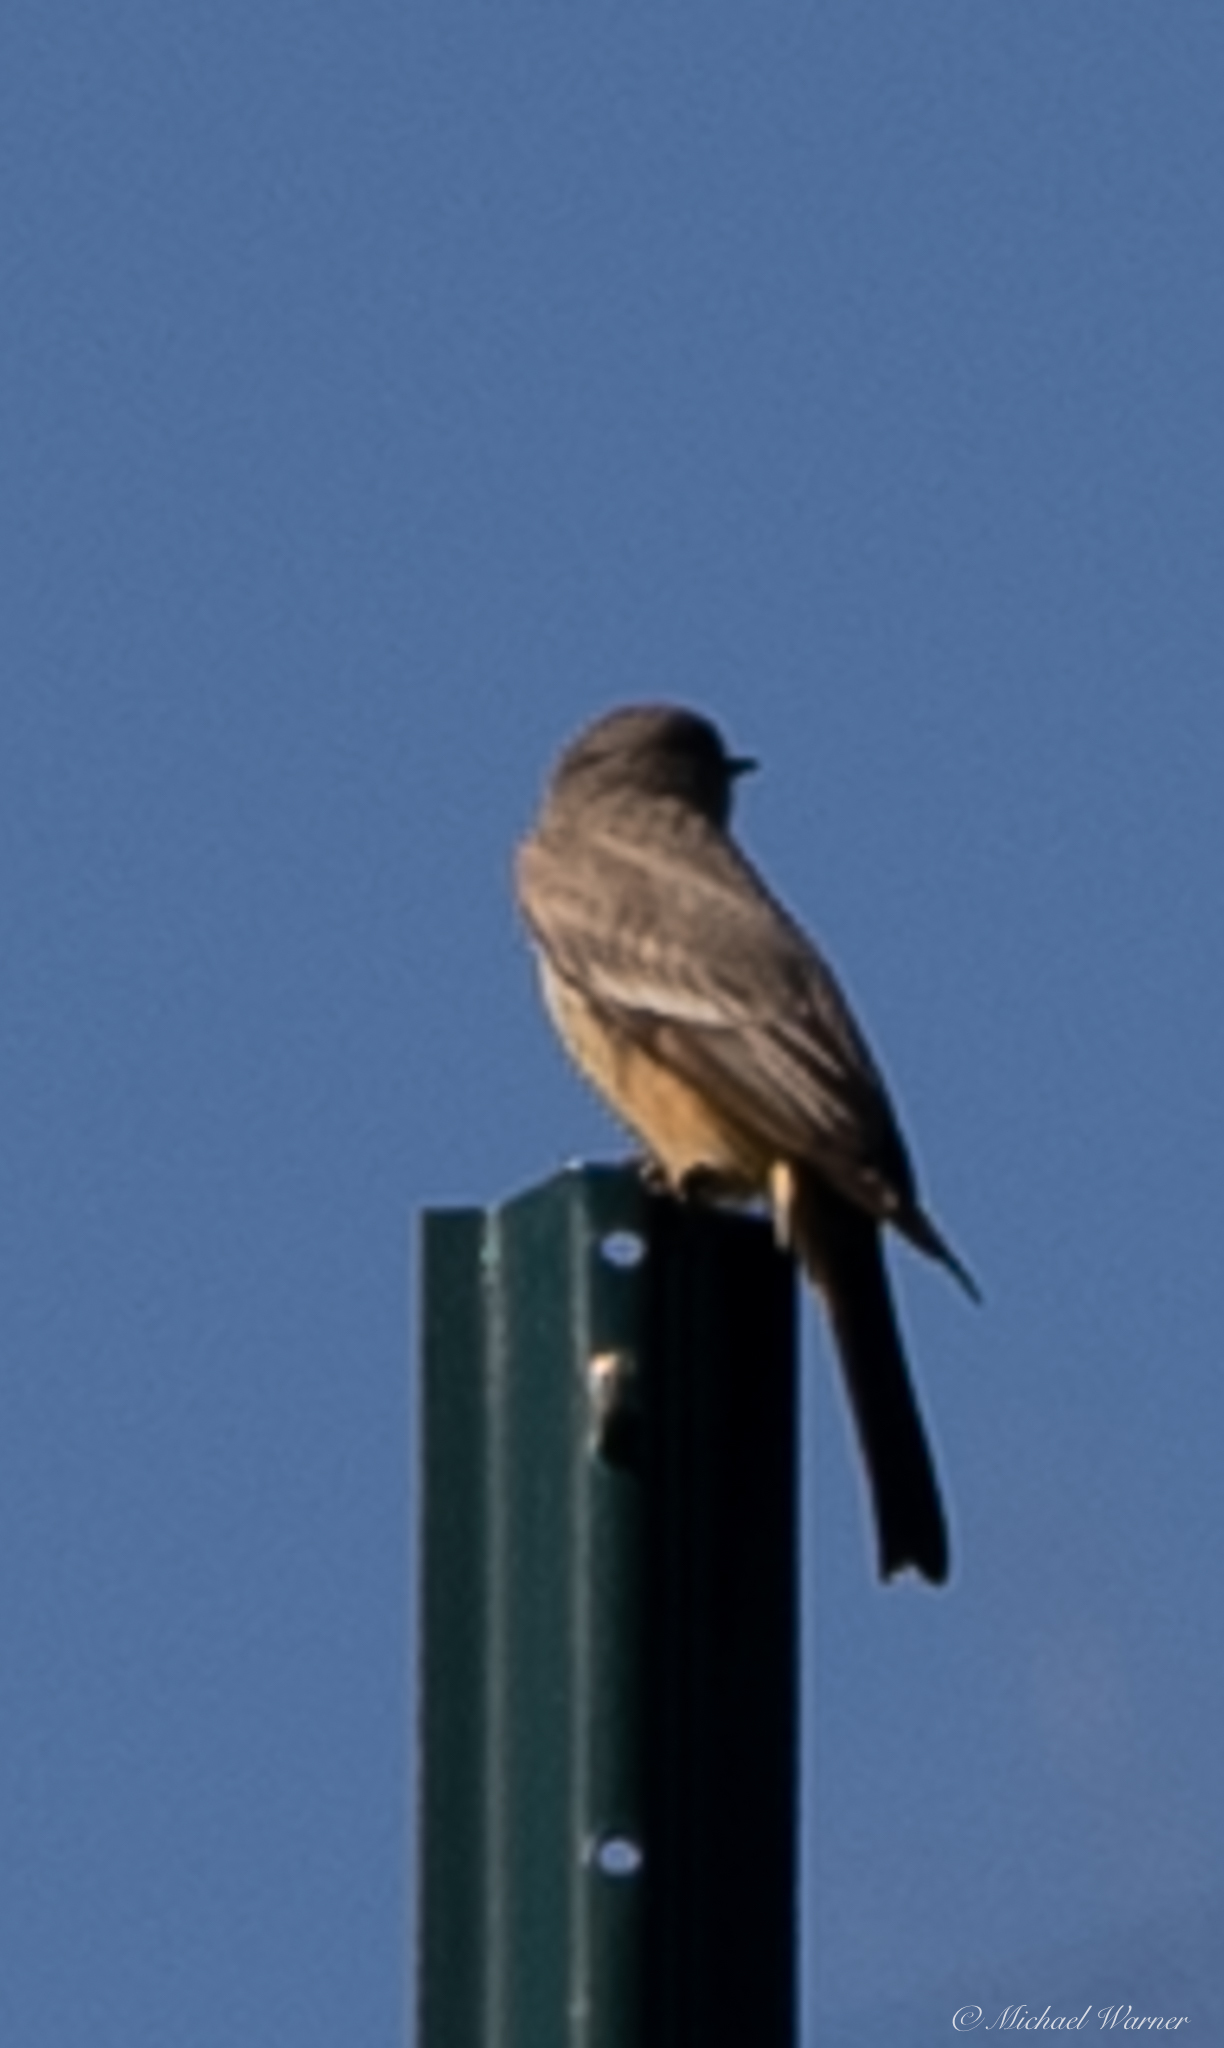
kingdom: Animalia
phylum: Chordata
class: Aves
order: Passeriformes
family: Tyrannidae
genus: Sayornis
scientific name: Sayornis saya
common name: Say's phoebe
